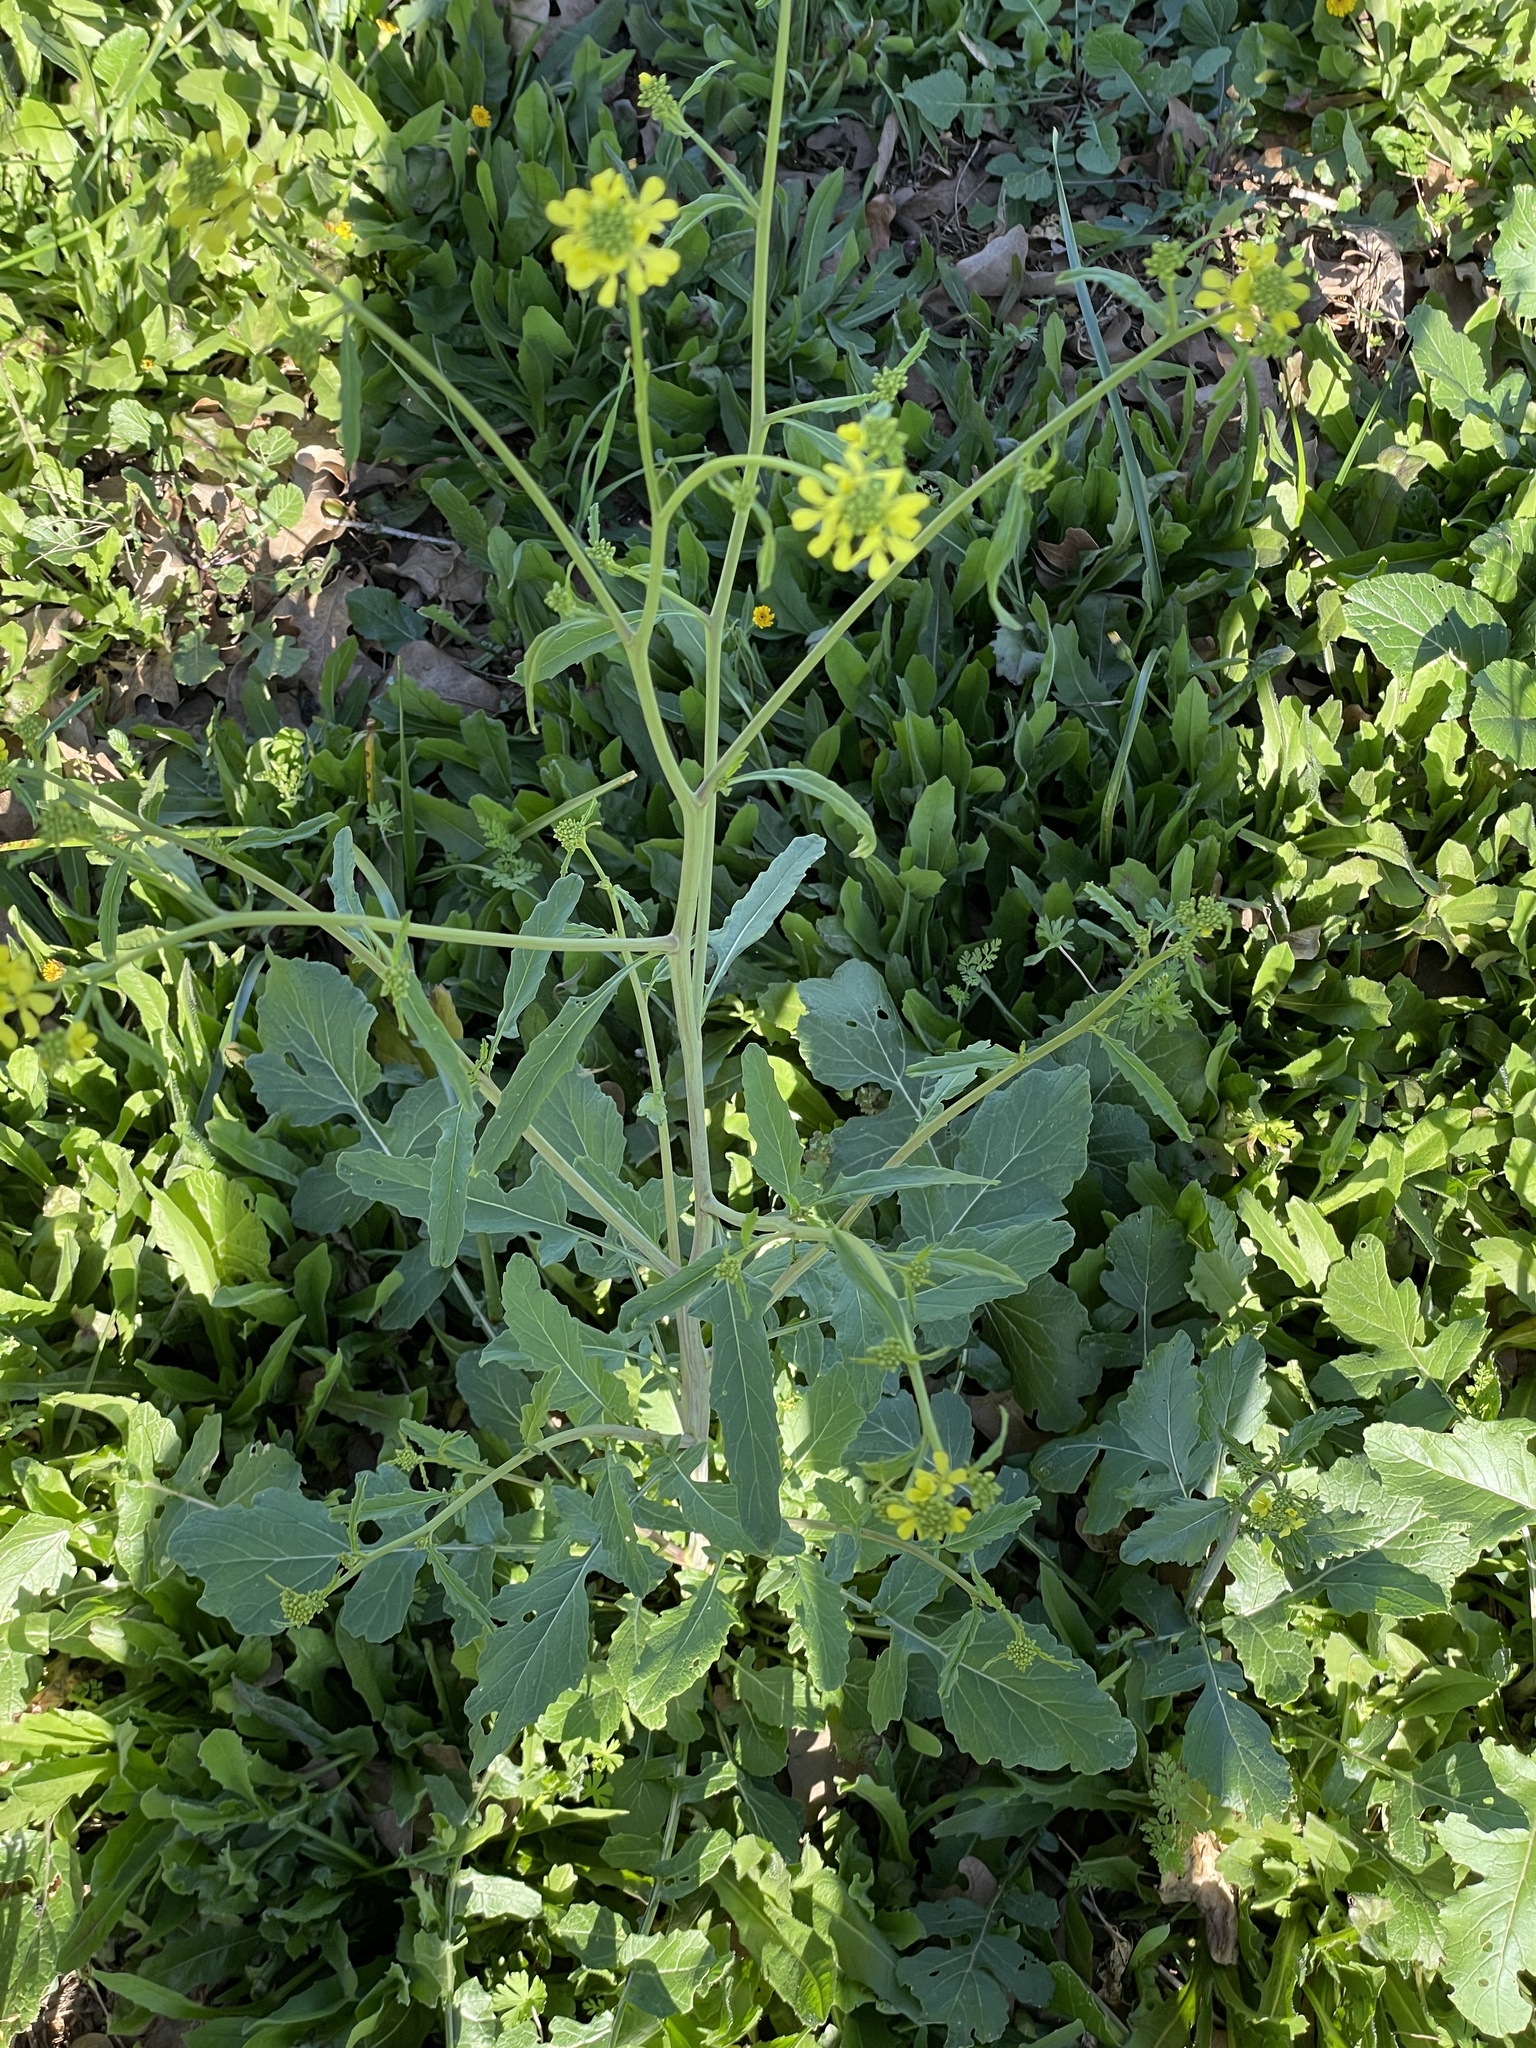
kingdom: Plantae
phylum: Tracheophyta
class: Magnoliopsida
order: Brassicales
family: Brassicaceae
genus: Rapistrum
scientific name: Rapistrum rugosum
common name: Annual bastardcabbage
